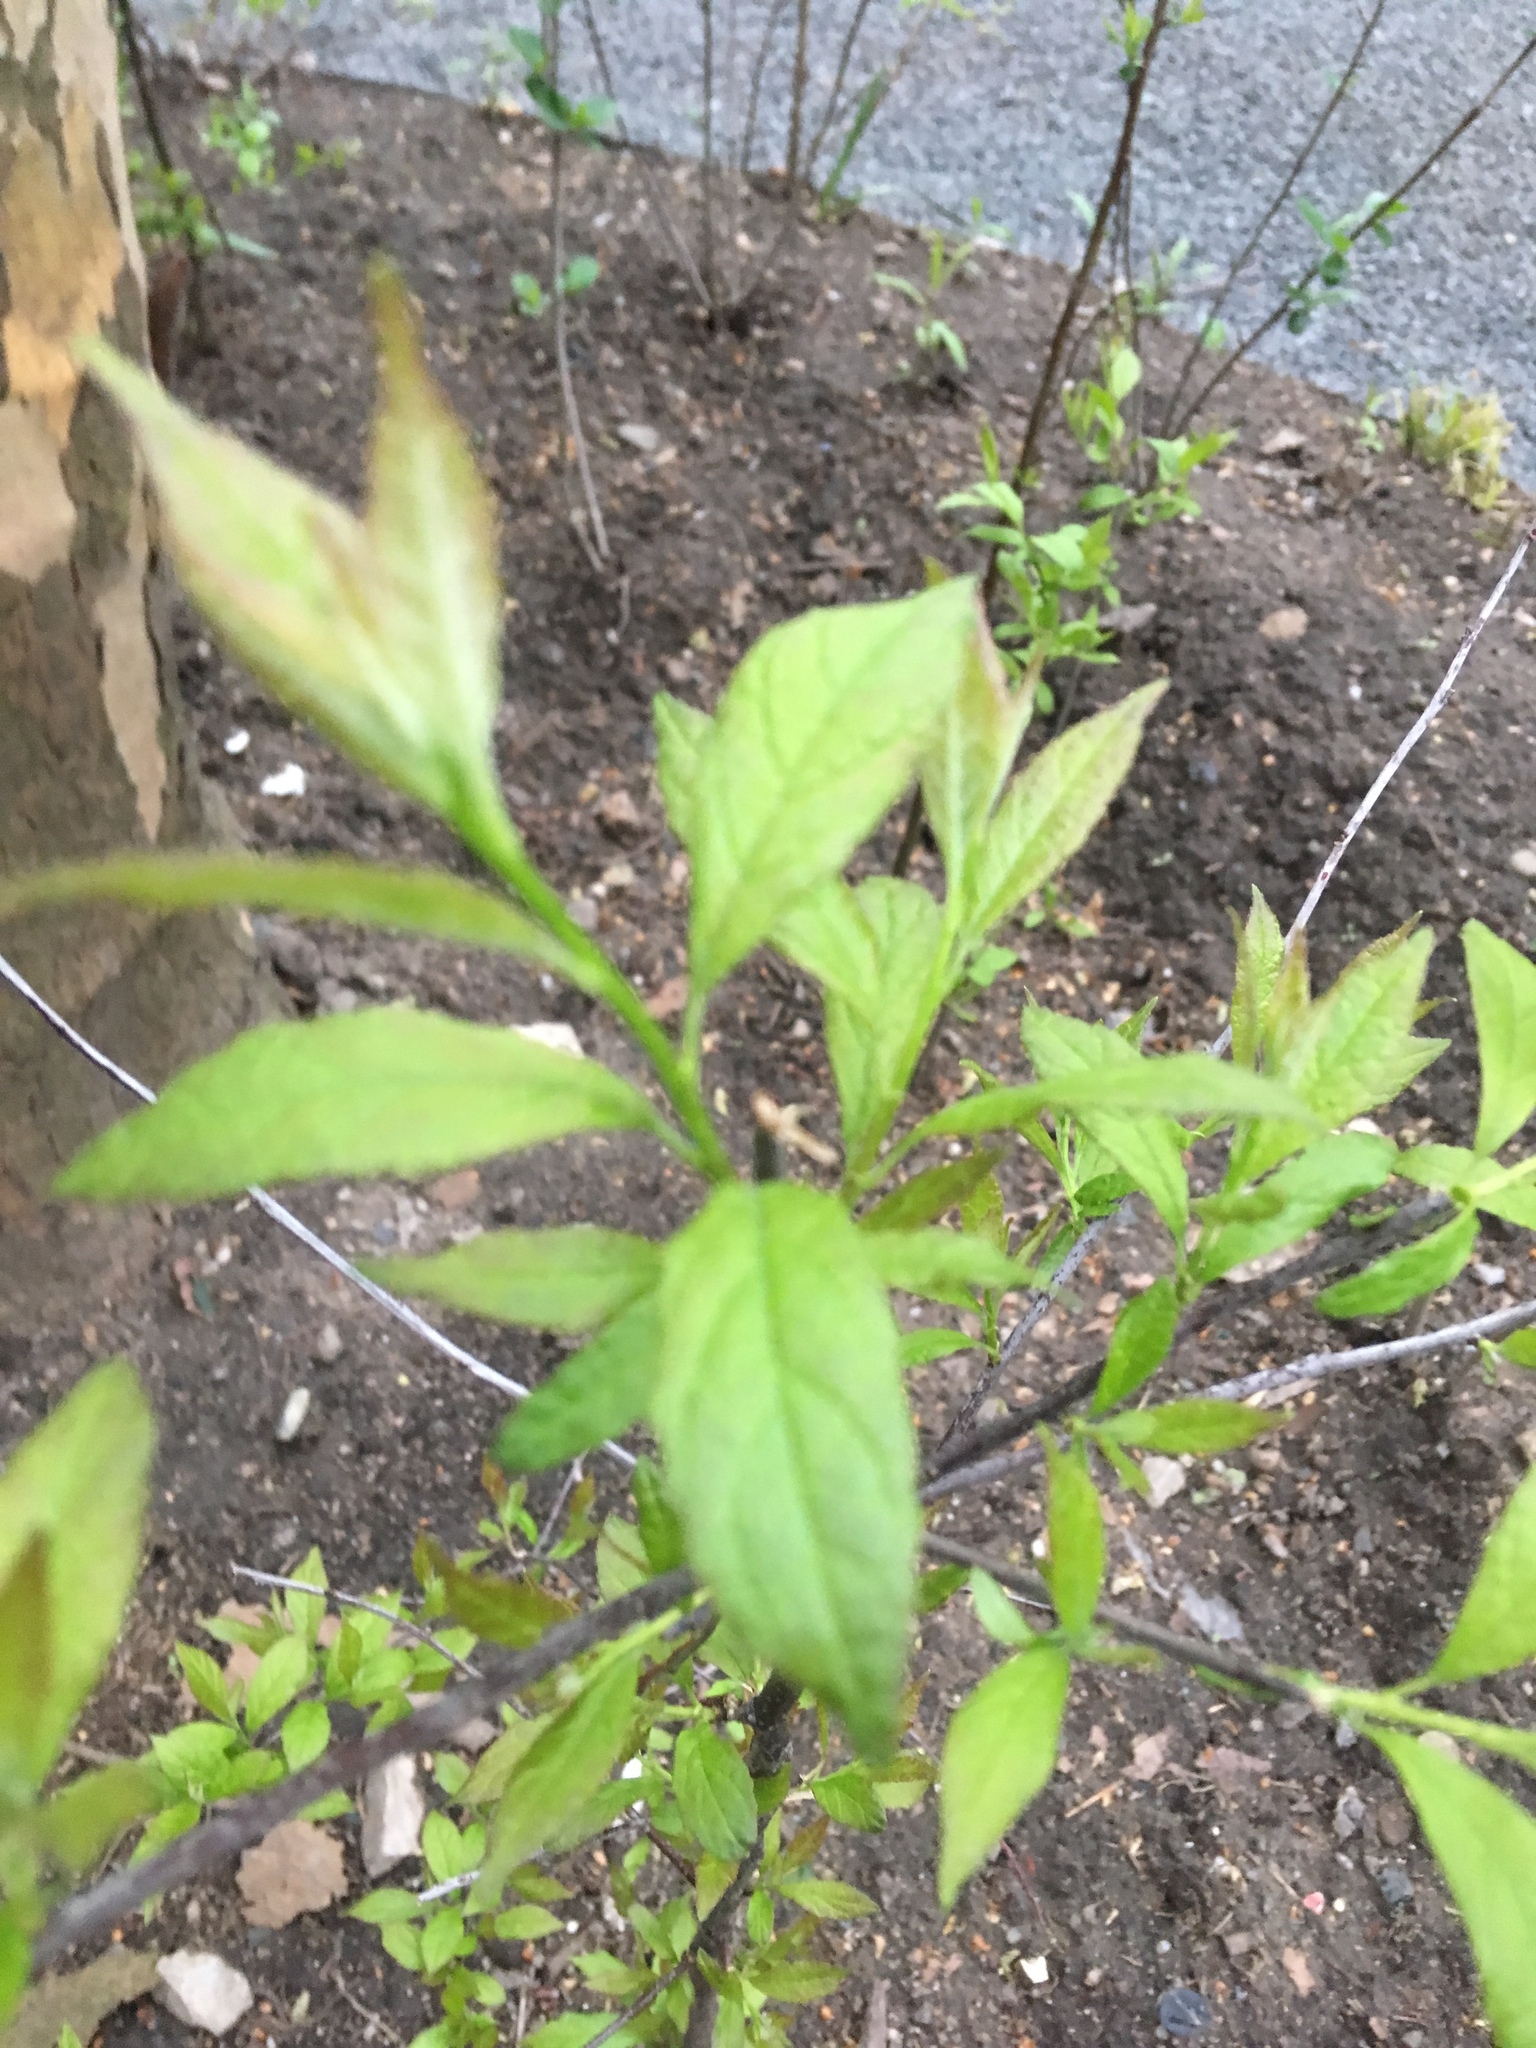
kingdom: Plantae
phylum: Tracheophyta
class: Magnoliopsida
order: Aquifoliales
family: Aquifoliaceae
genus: Ilex
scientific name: Ilex verticillata
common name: Virginia winterberry
